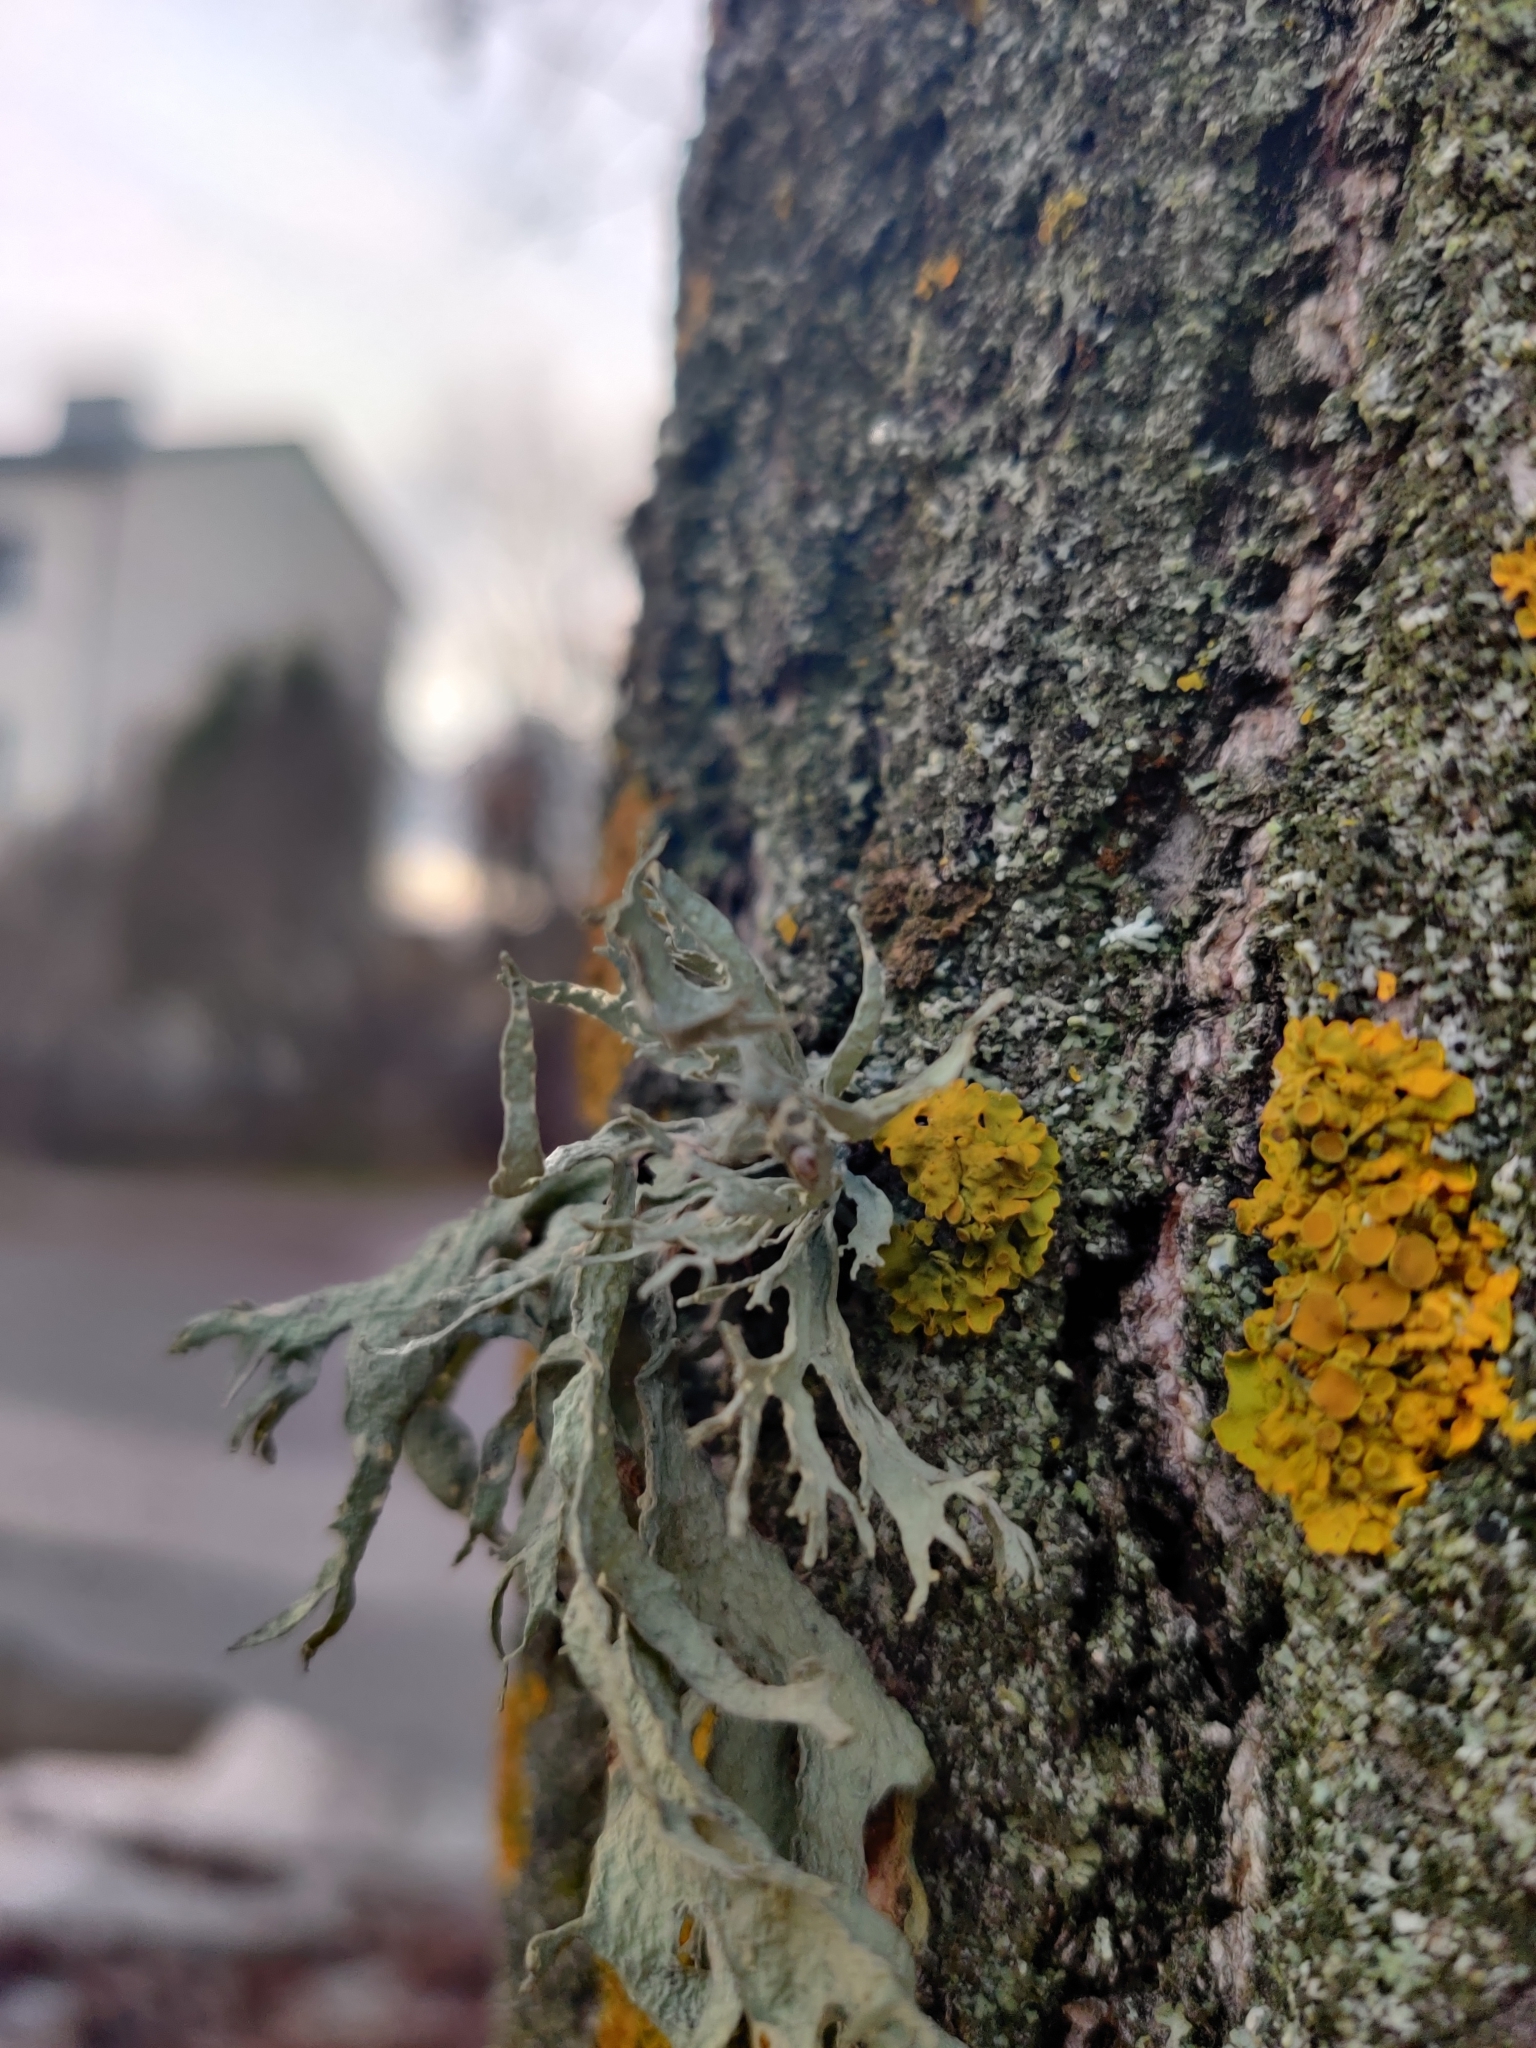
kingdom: Fungi
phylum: Ascomycota
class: Lecanoromycetes
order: Lecanorales
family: Ramalinaceae
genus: Ramalina
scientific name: Ramalina fraxinea
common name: Cartilage lichen
